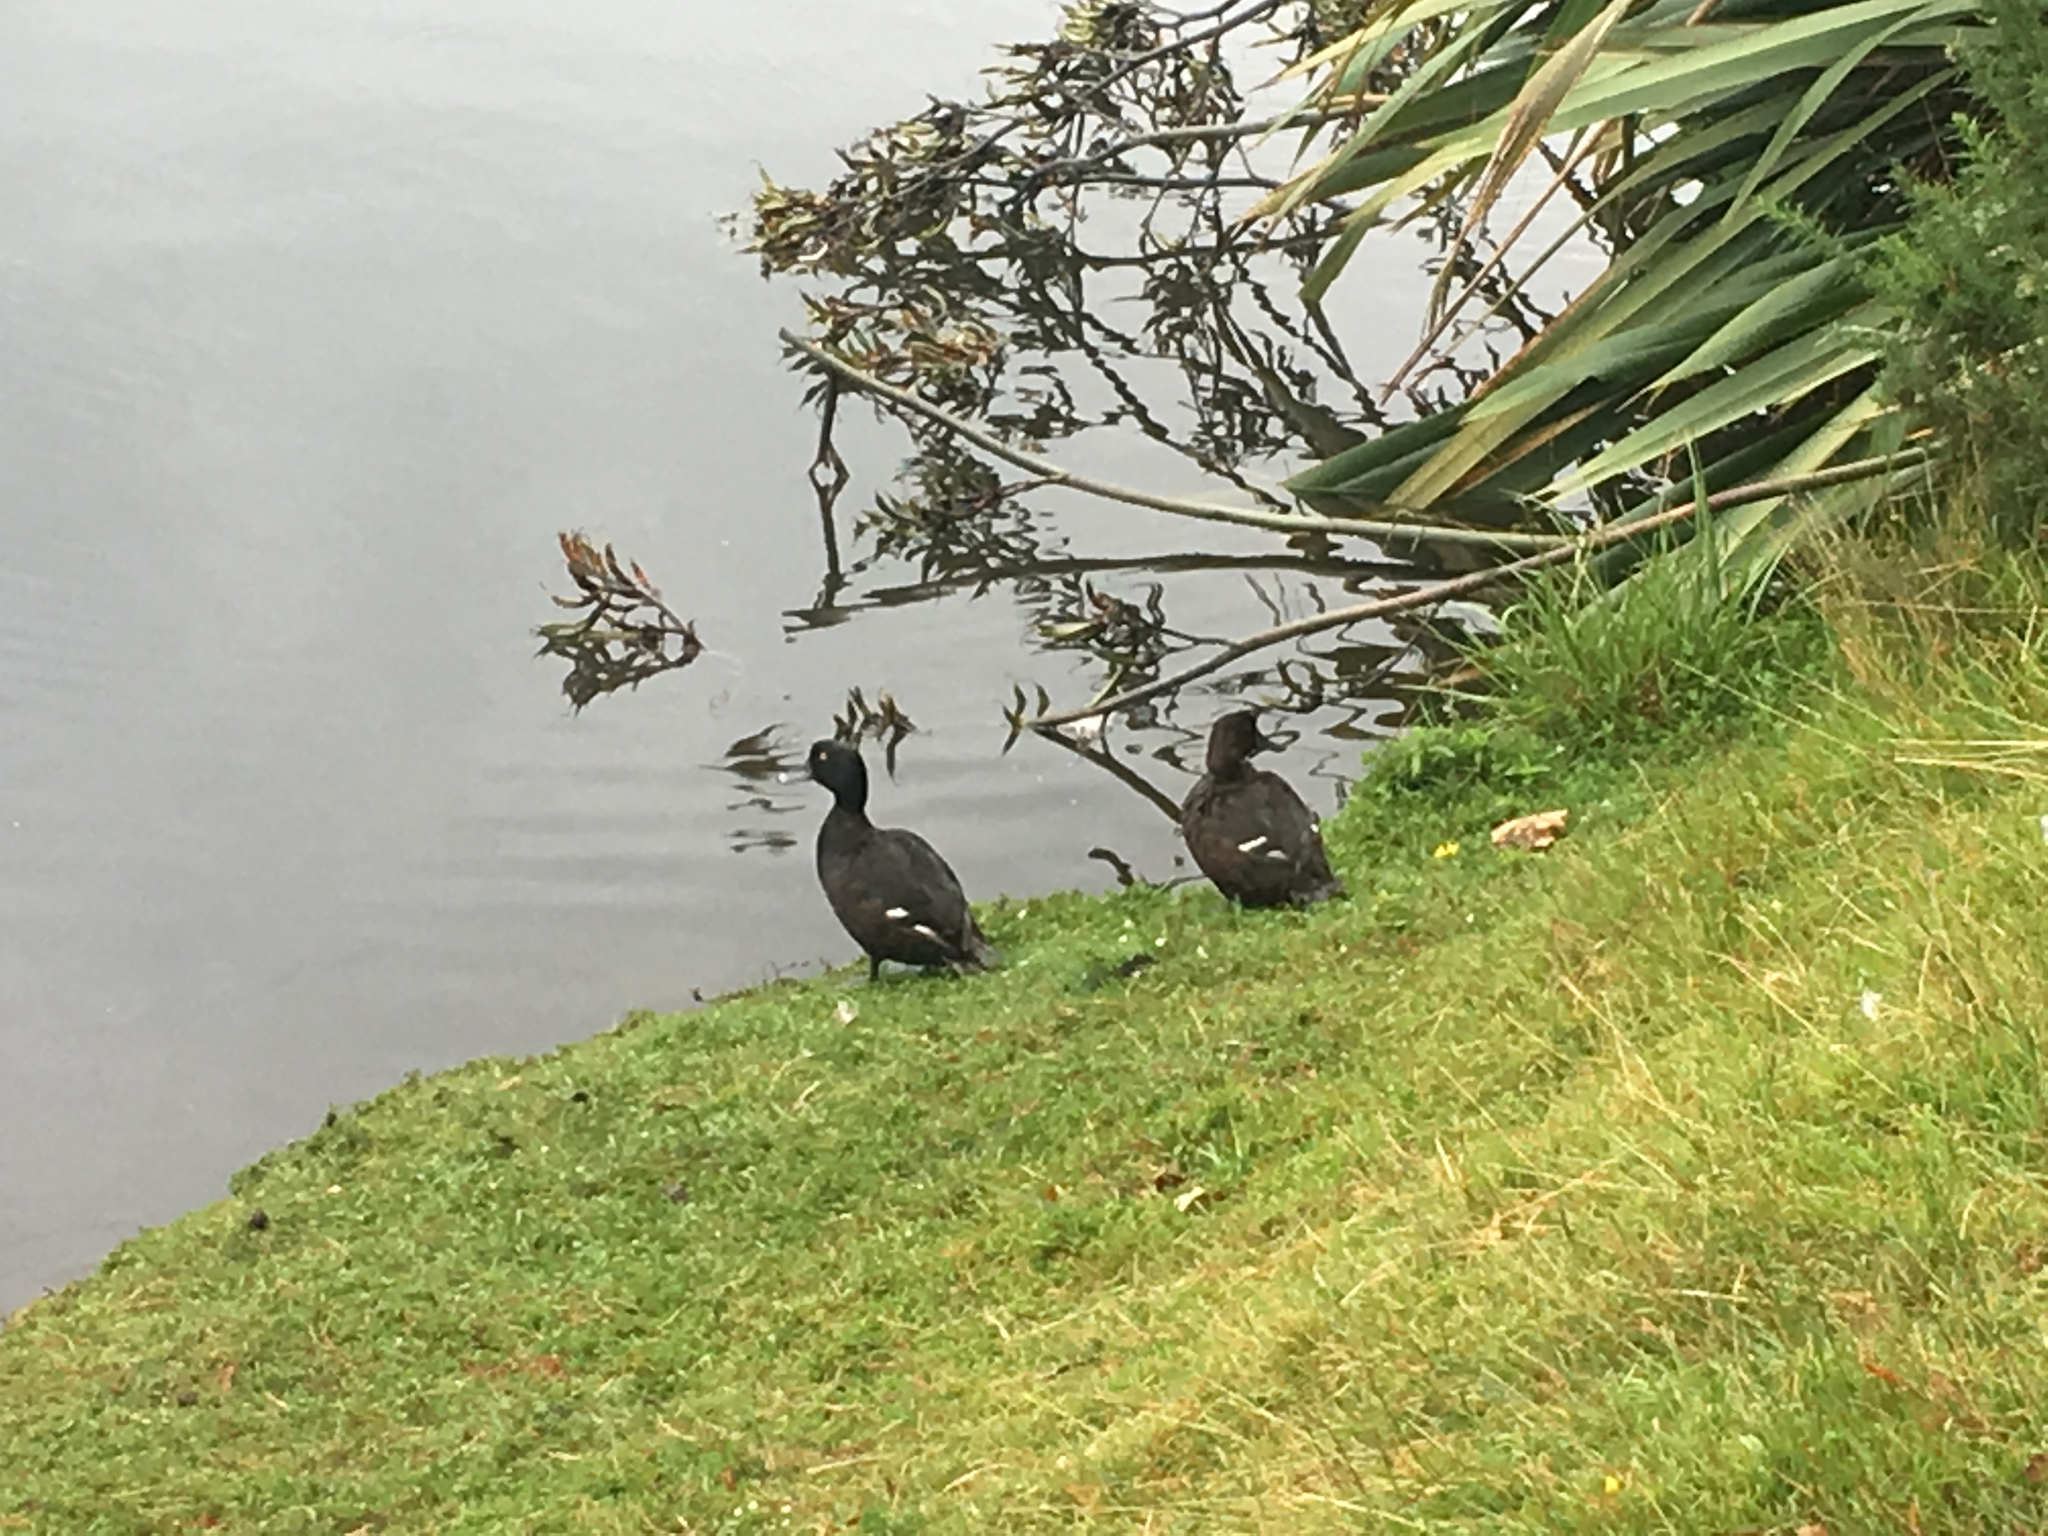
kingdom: Animalia
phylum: Chordata
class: Aves
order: Anseriformes
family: Anatidae
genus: Aythya
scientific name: Aythya novaeseelandiae
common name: New zealand scaup
